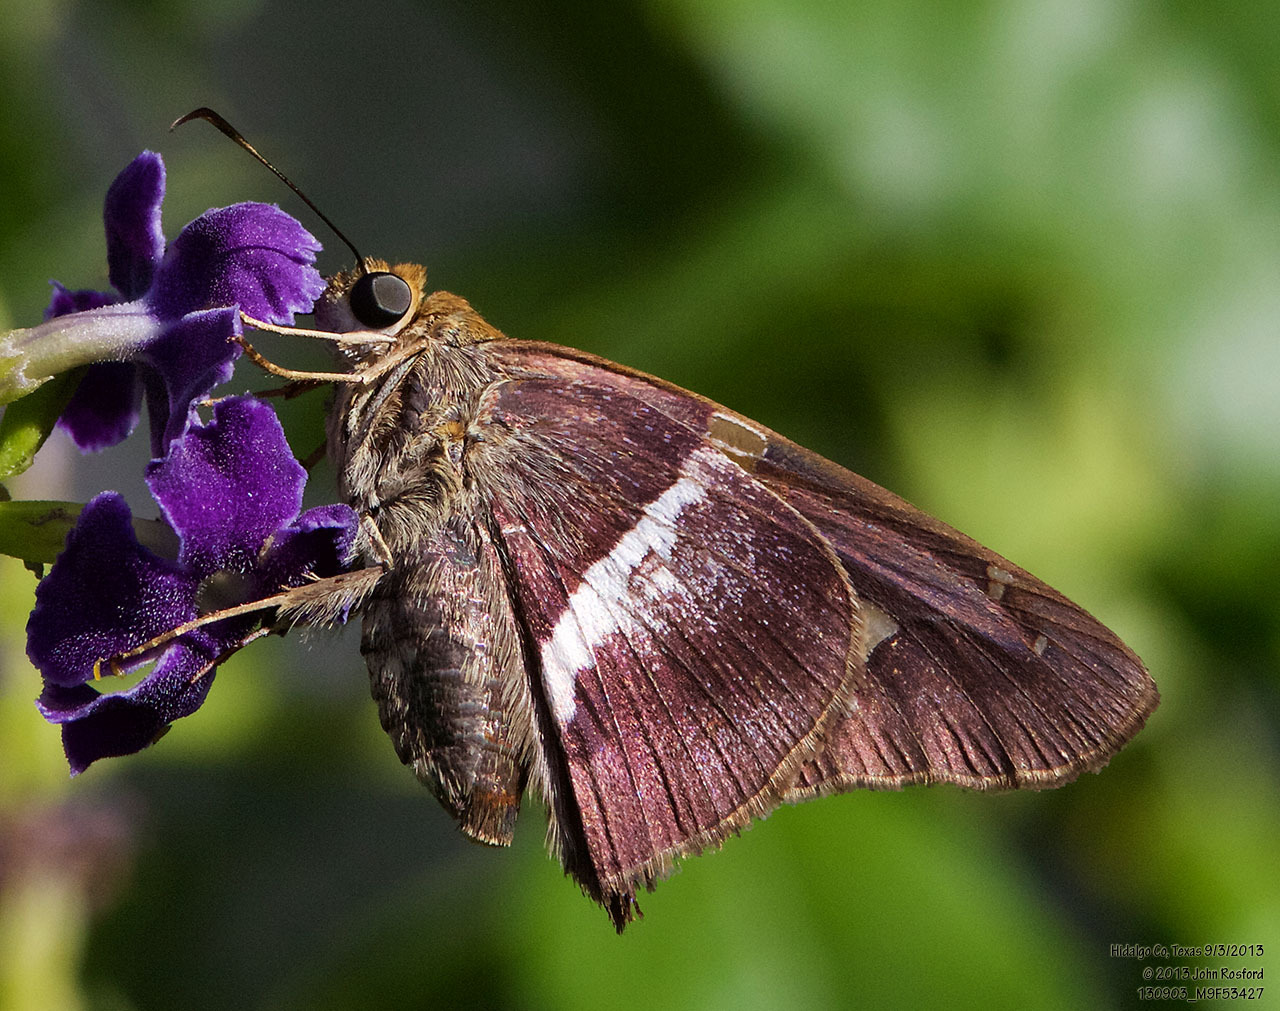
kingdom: Animalia
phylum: Arthropoda
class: Insecta
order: Lepidoptera
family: Hesperiidae
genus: Aguna
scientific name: Aguna asander
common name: Gold-spotted aguna
